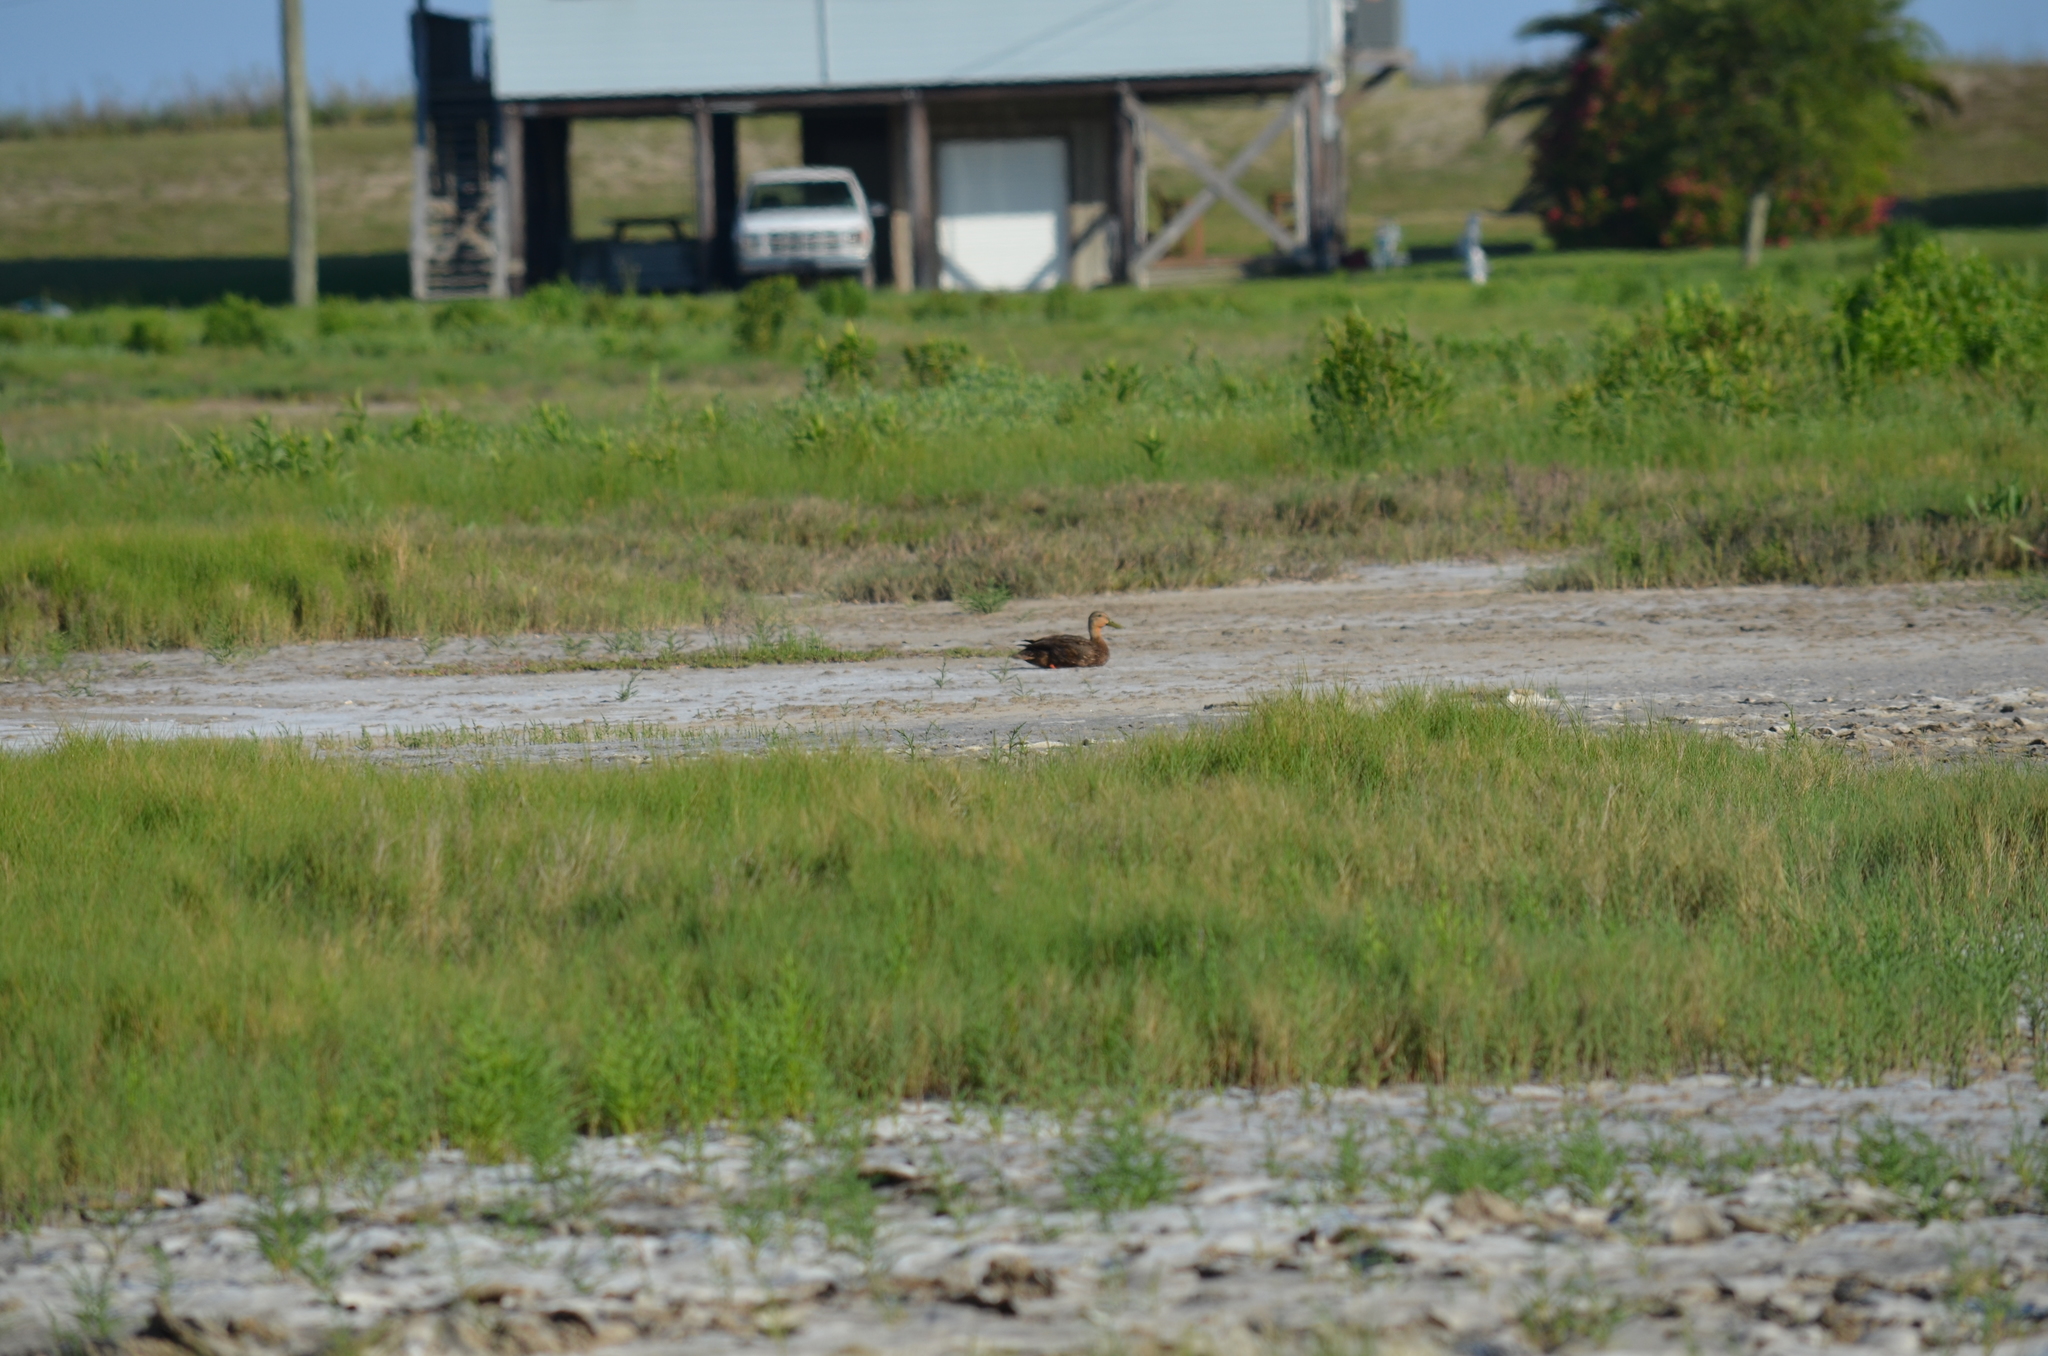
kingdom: Animalia
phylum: Chordata
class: Aves
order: Anseriformes
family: Anatidae
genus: Anas
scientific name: Anas fulvigula
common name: Mottled duck
